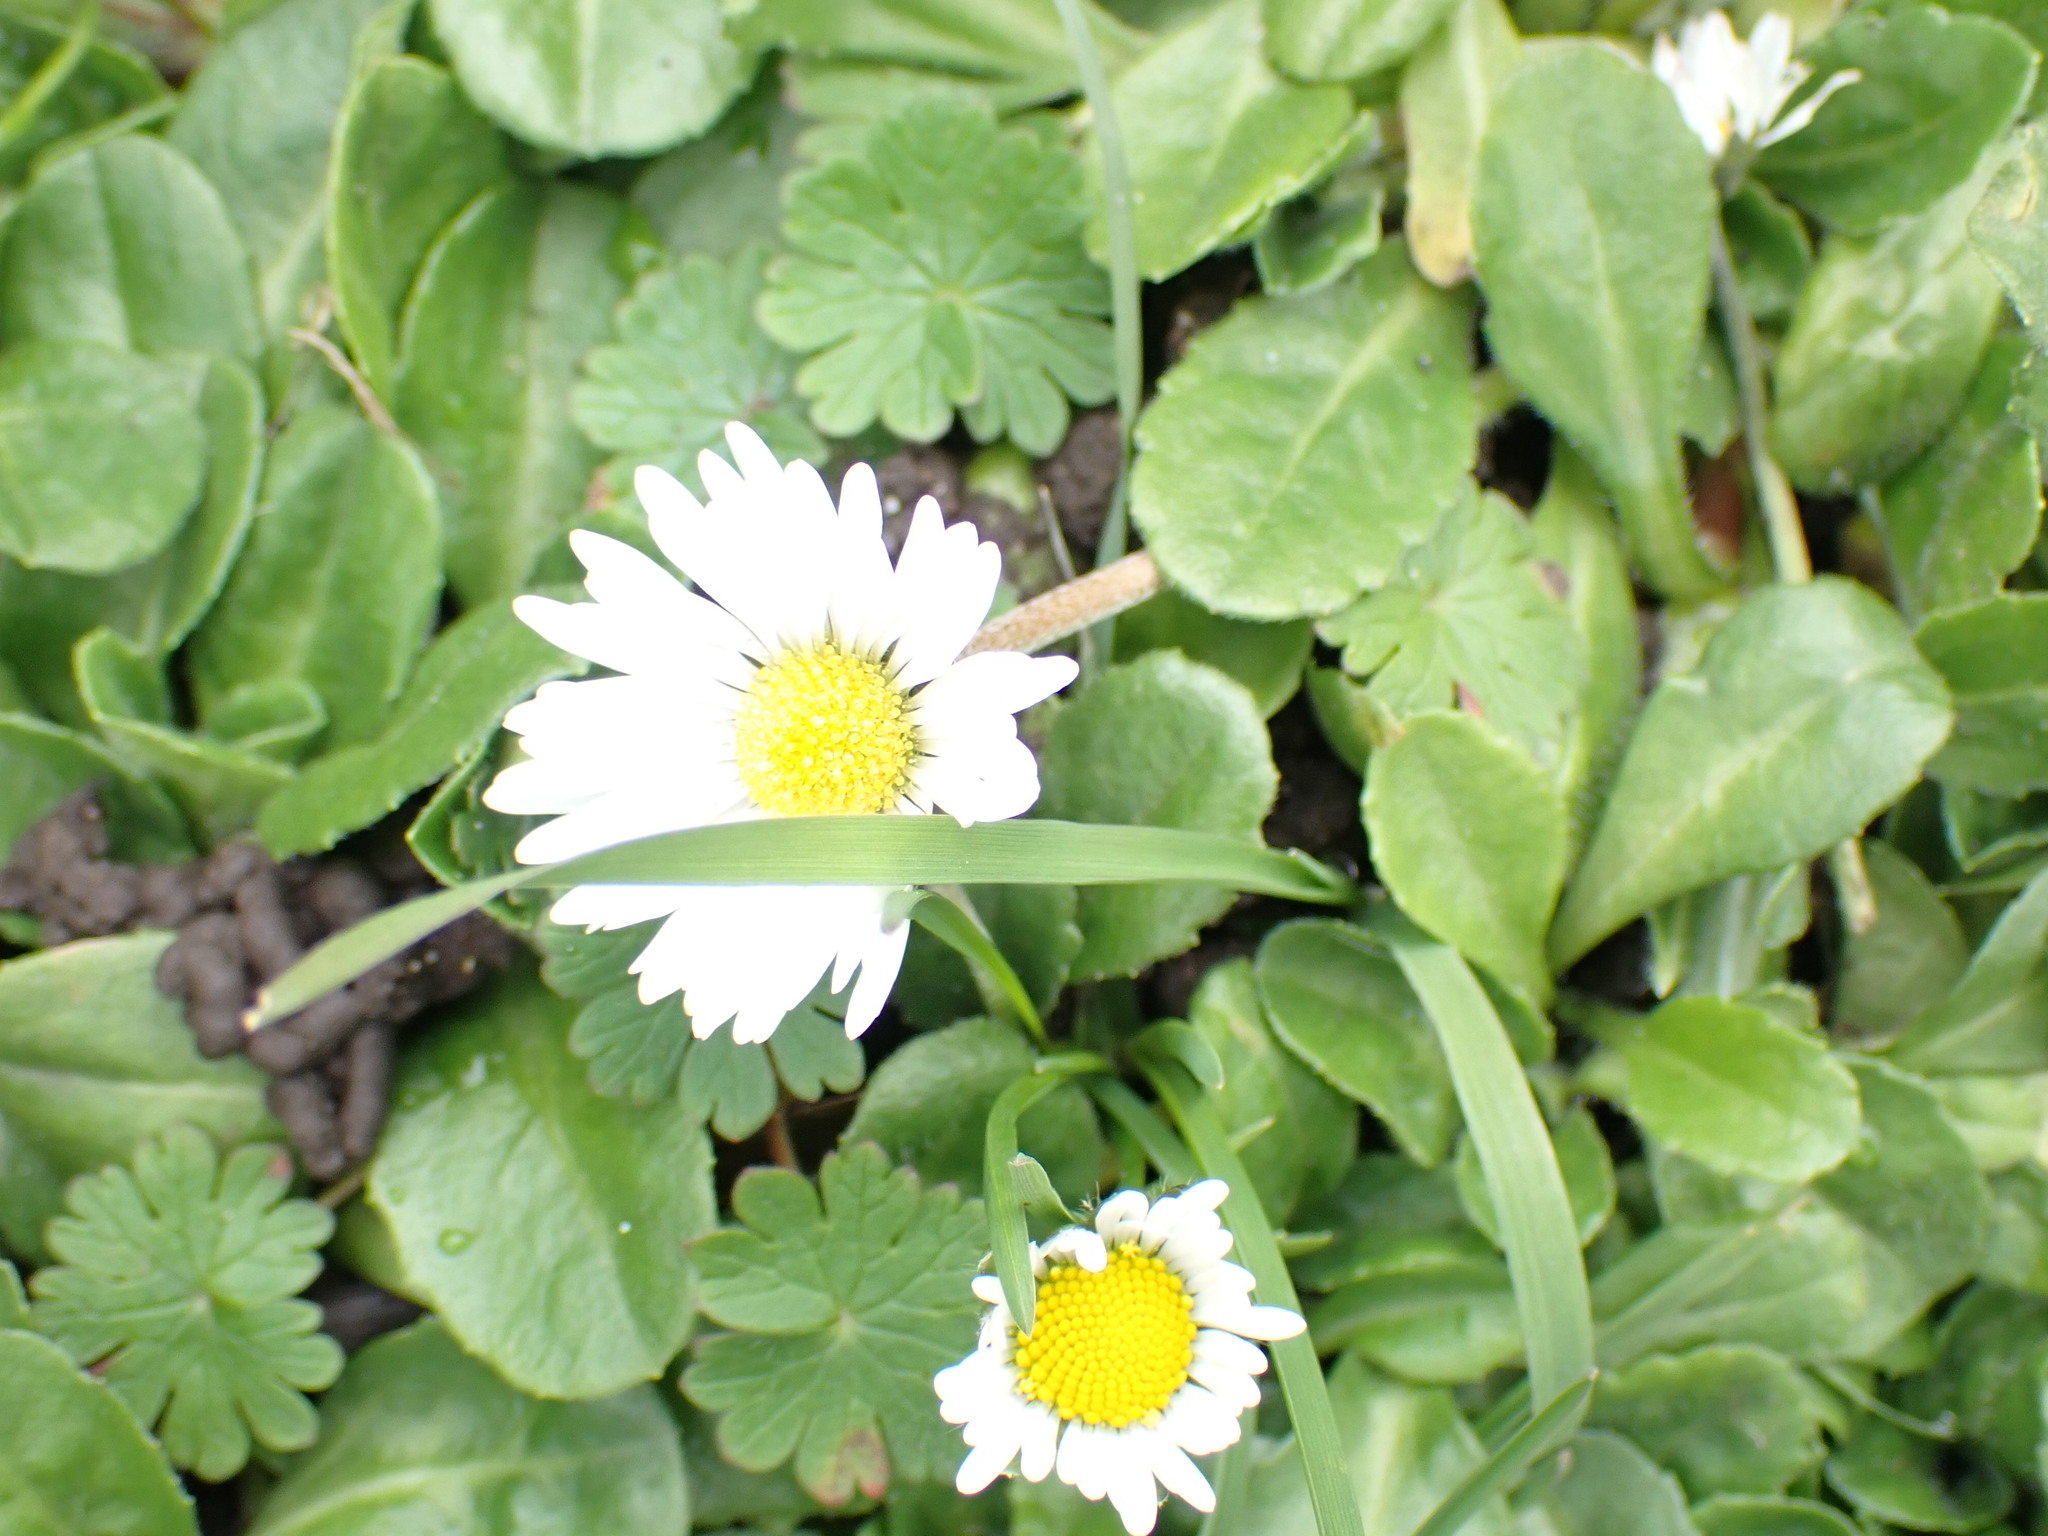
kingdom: Plantae
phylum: Tracheophyta
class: Magnoliopsida
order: Asterales
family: Asteraceae
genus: Bellis
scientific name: Bellis perennis
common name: Lawndaisy
